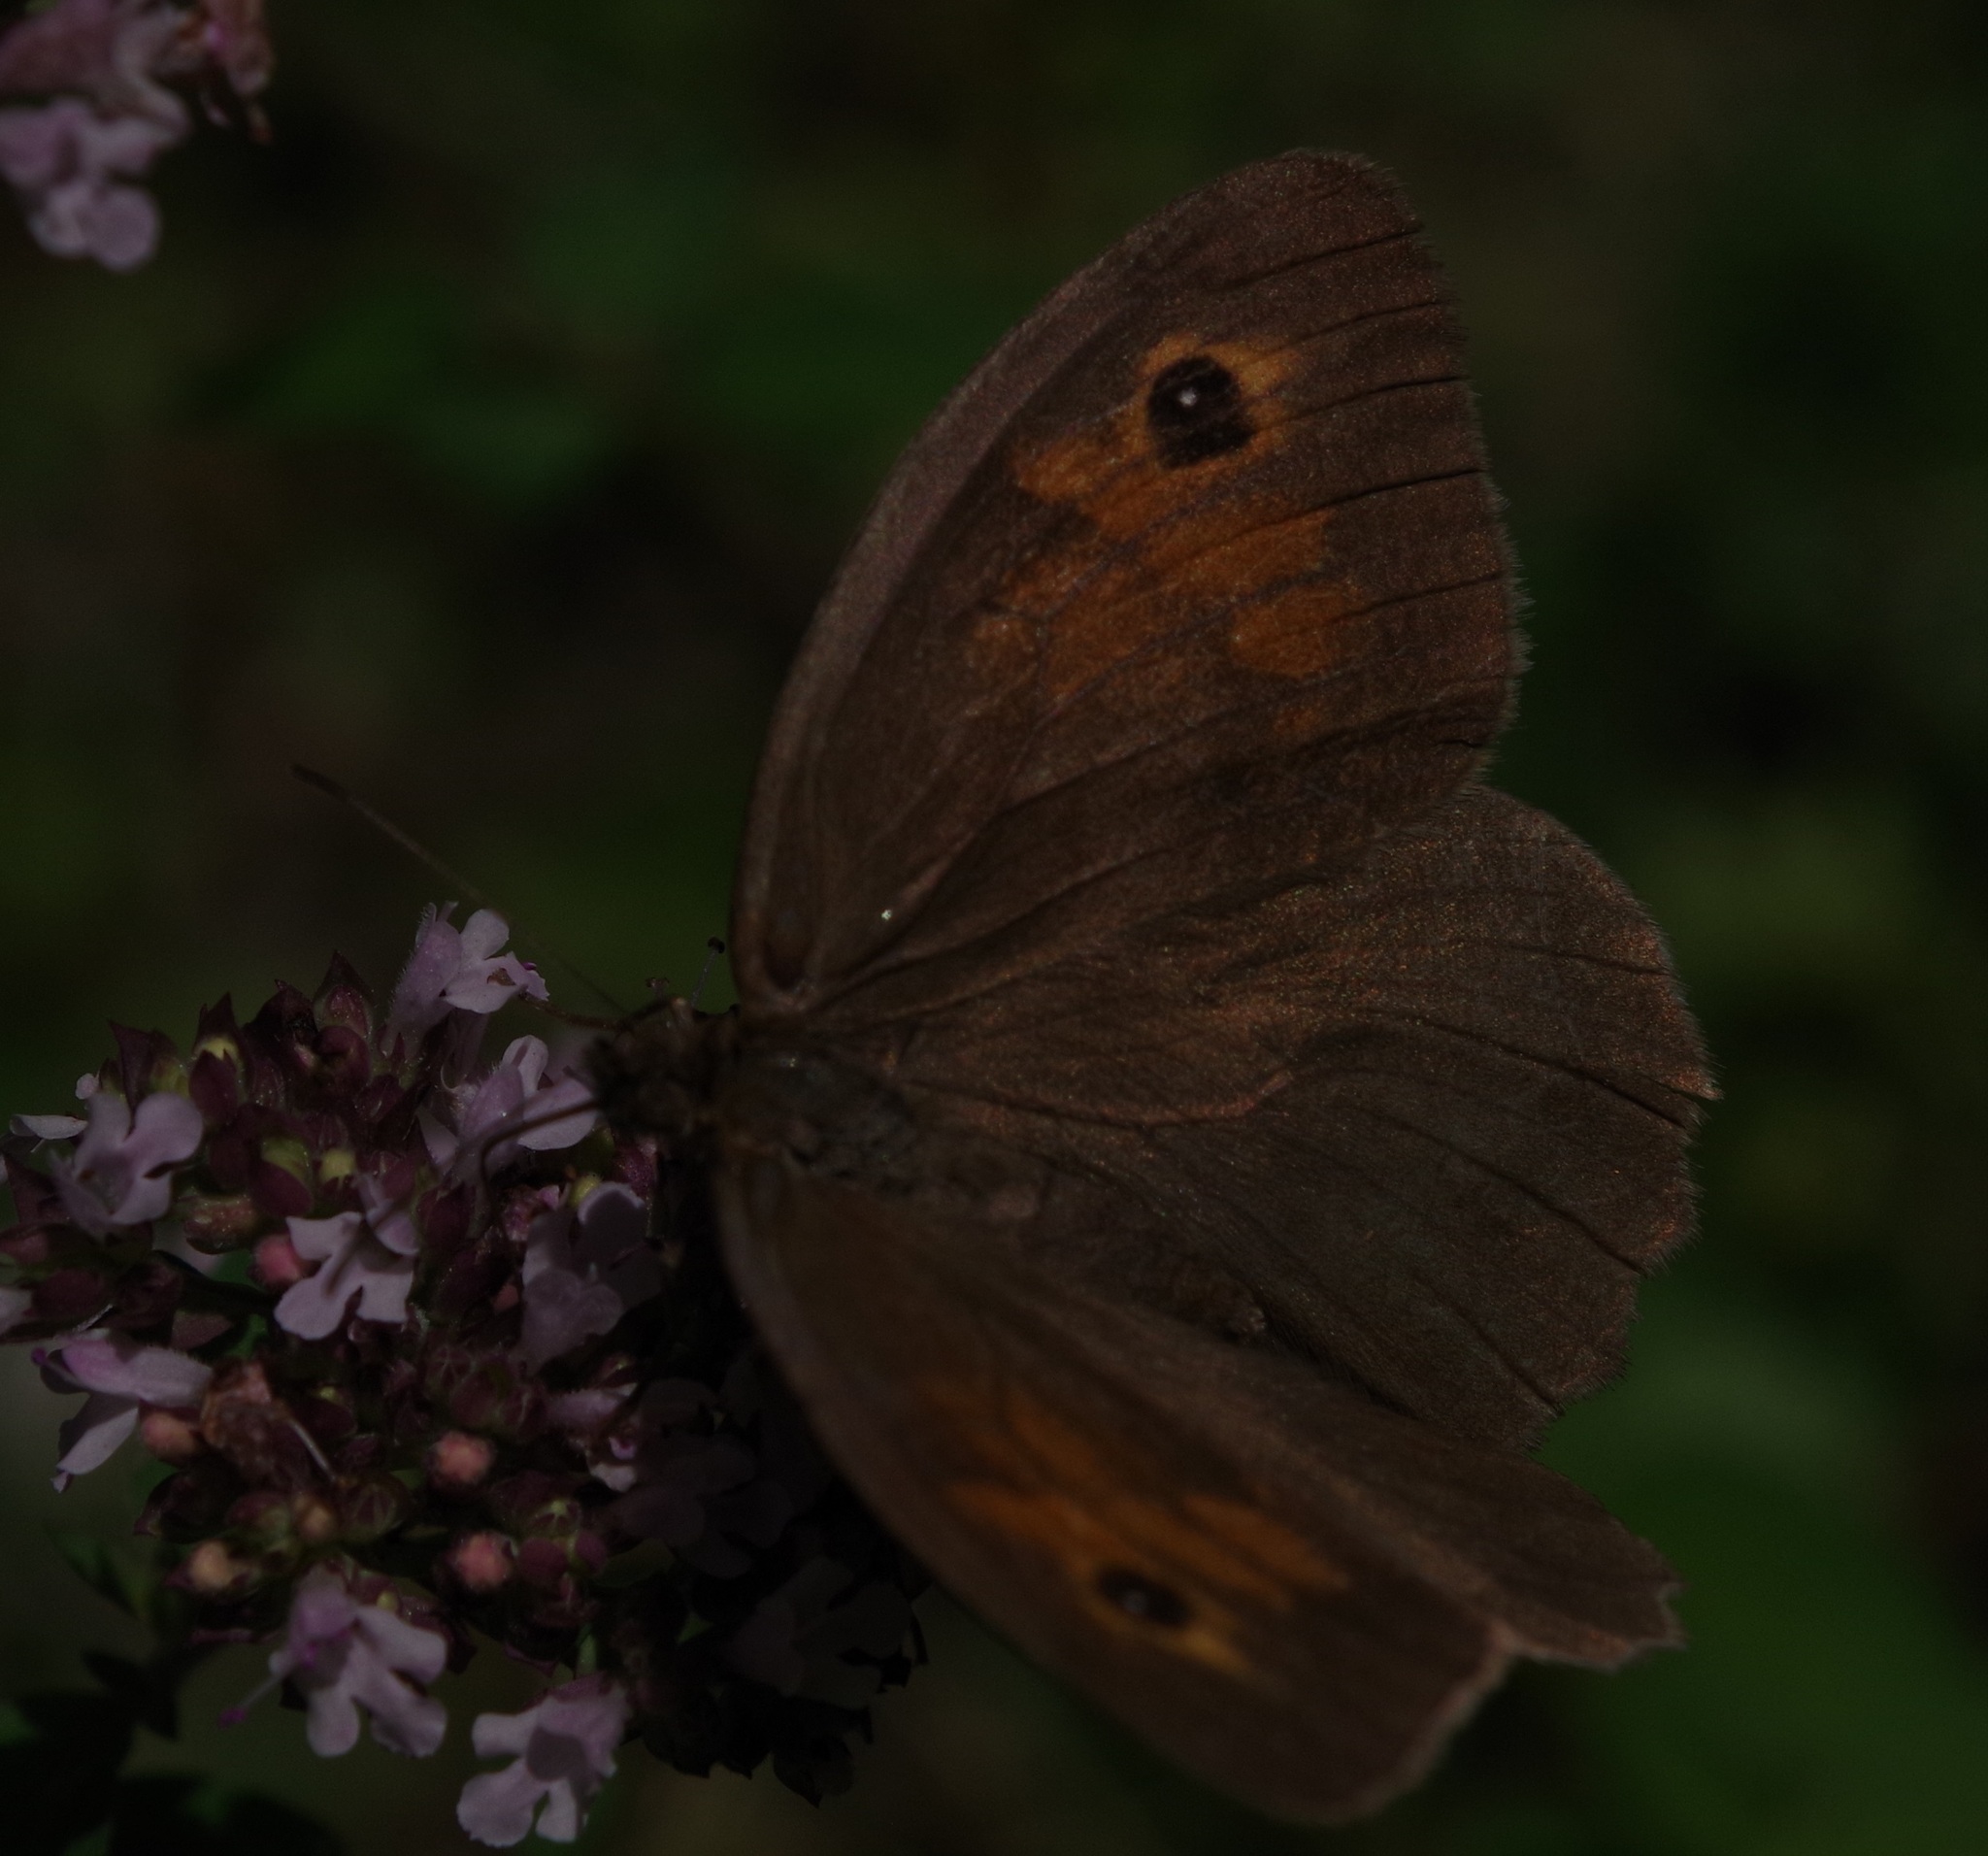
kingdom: Animalia
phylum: Arthropoda
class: Insecta
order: Lepidoptera
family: Nymphalidae
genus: Maniola
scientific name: Maniola jurtina
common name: Meadow brown
